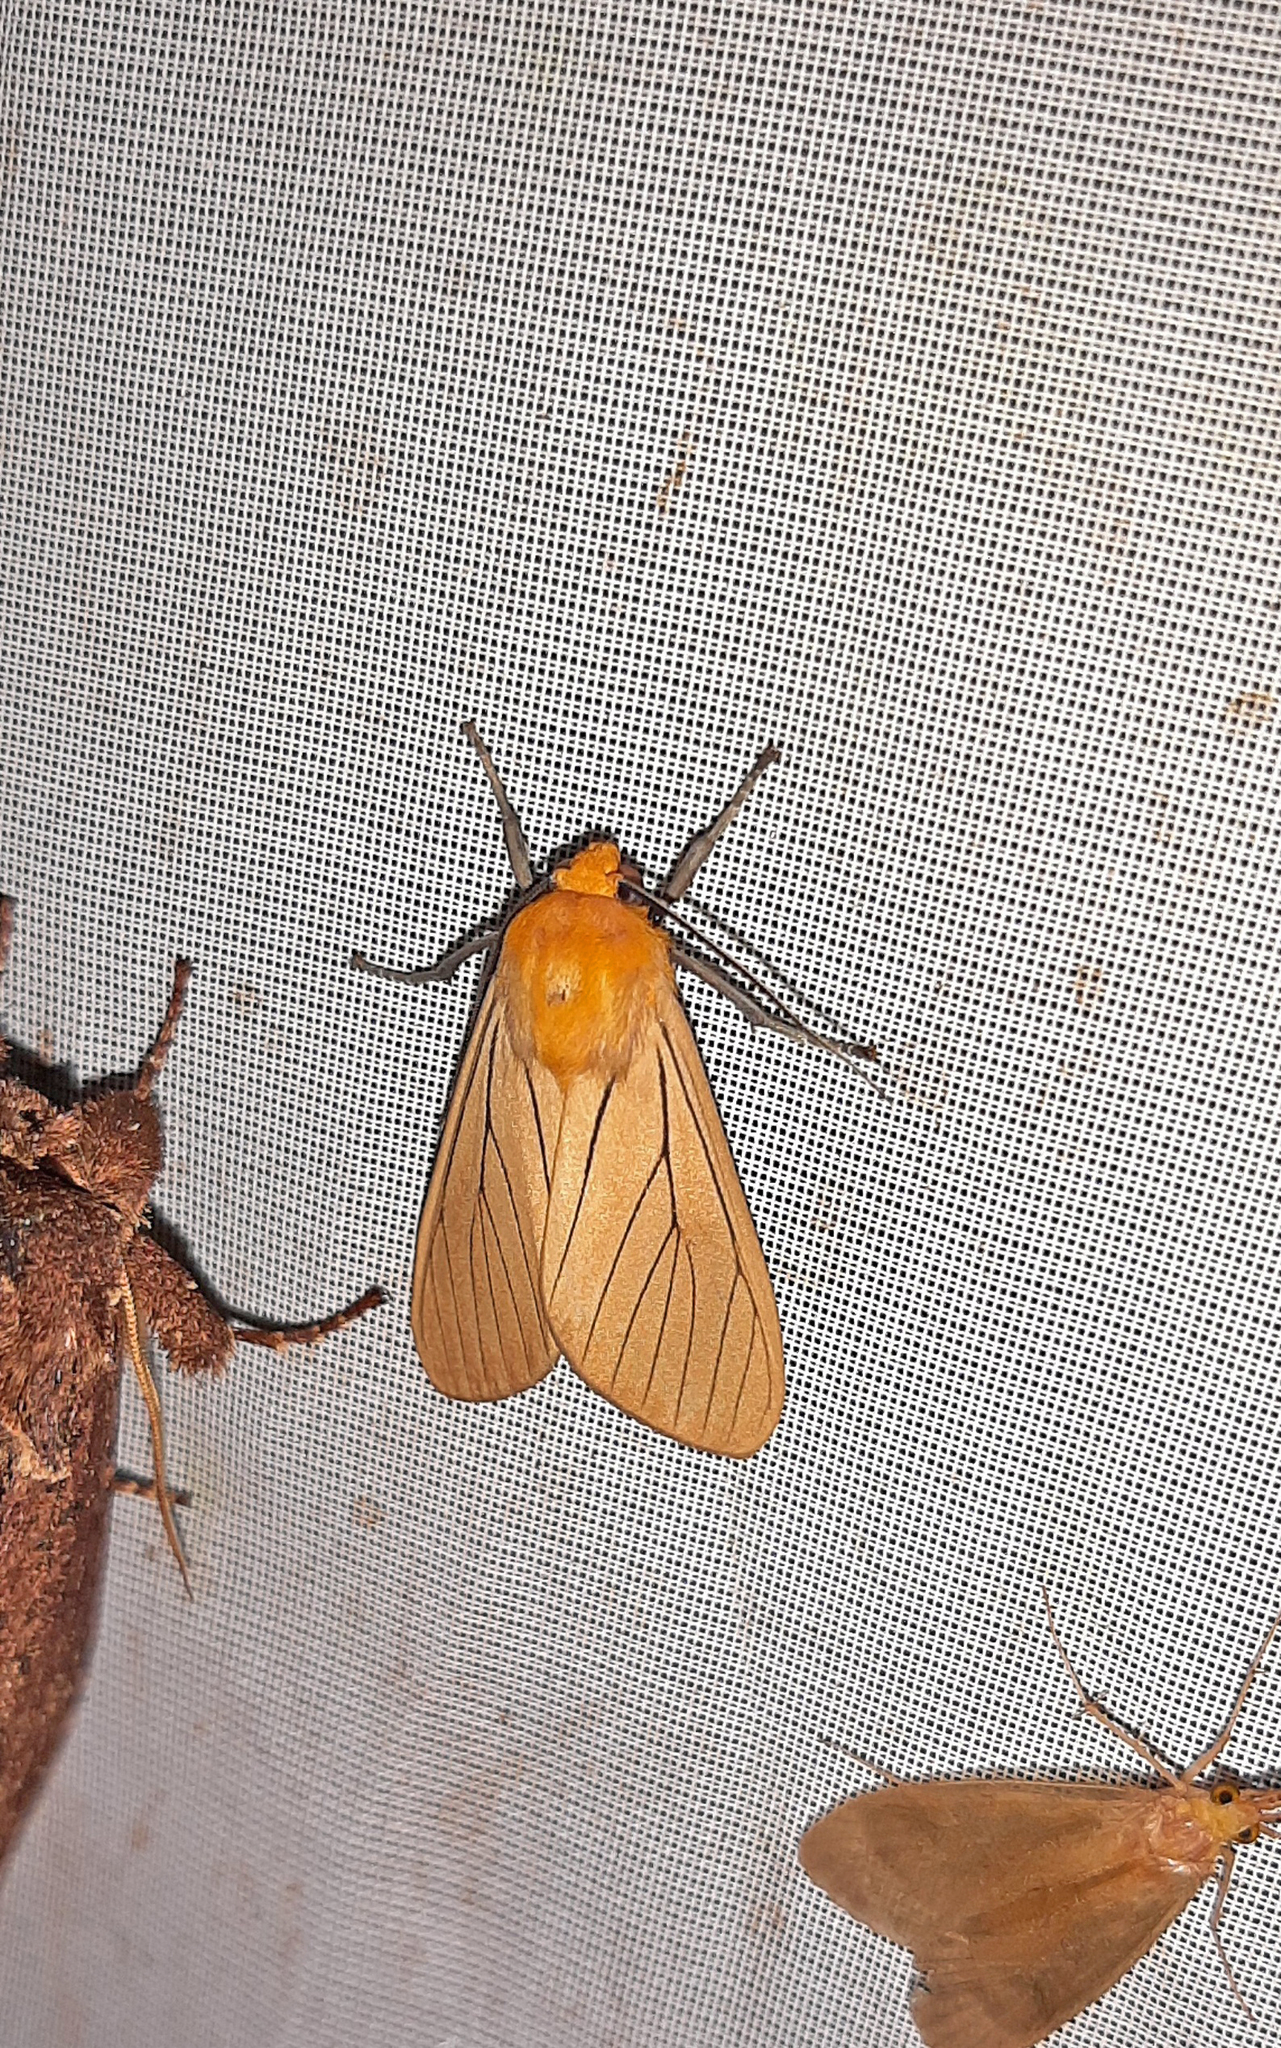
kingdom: Animalia
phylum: Arthropoda
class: Insecta
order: Lepidoptera
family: Erebidae
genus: Melese
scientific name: Melese
